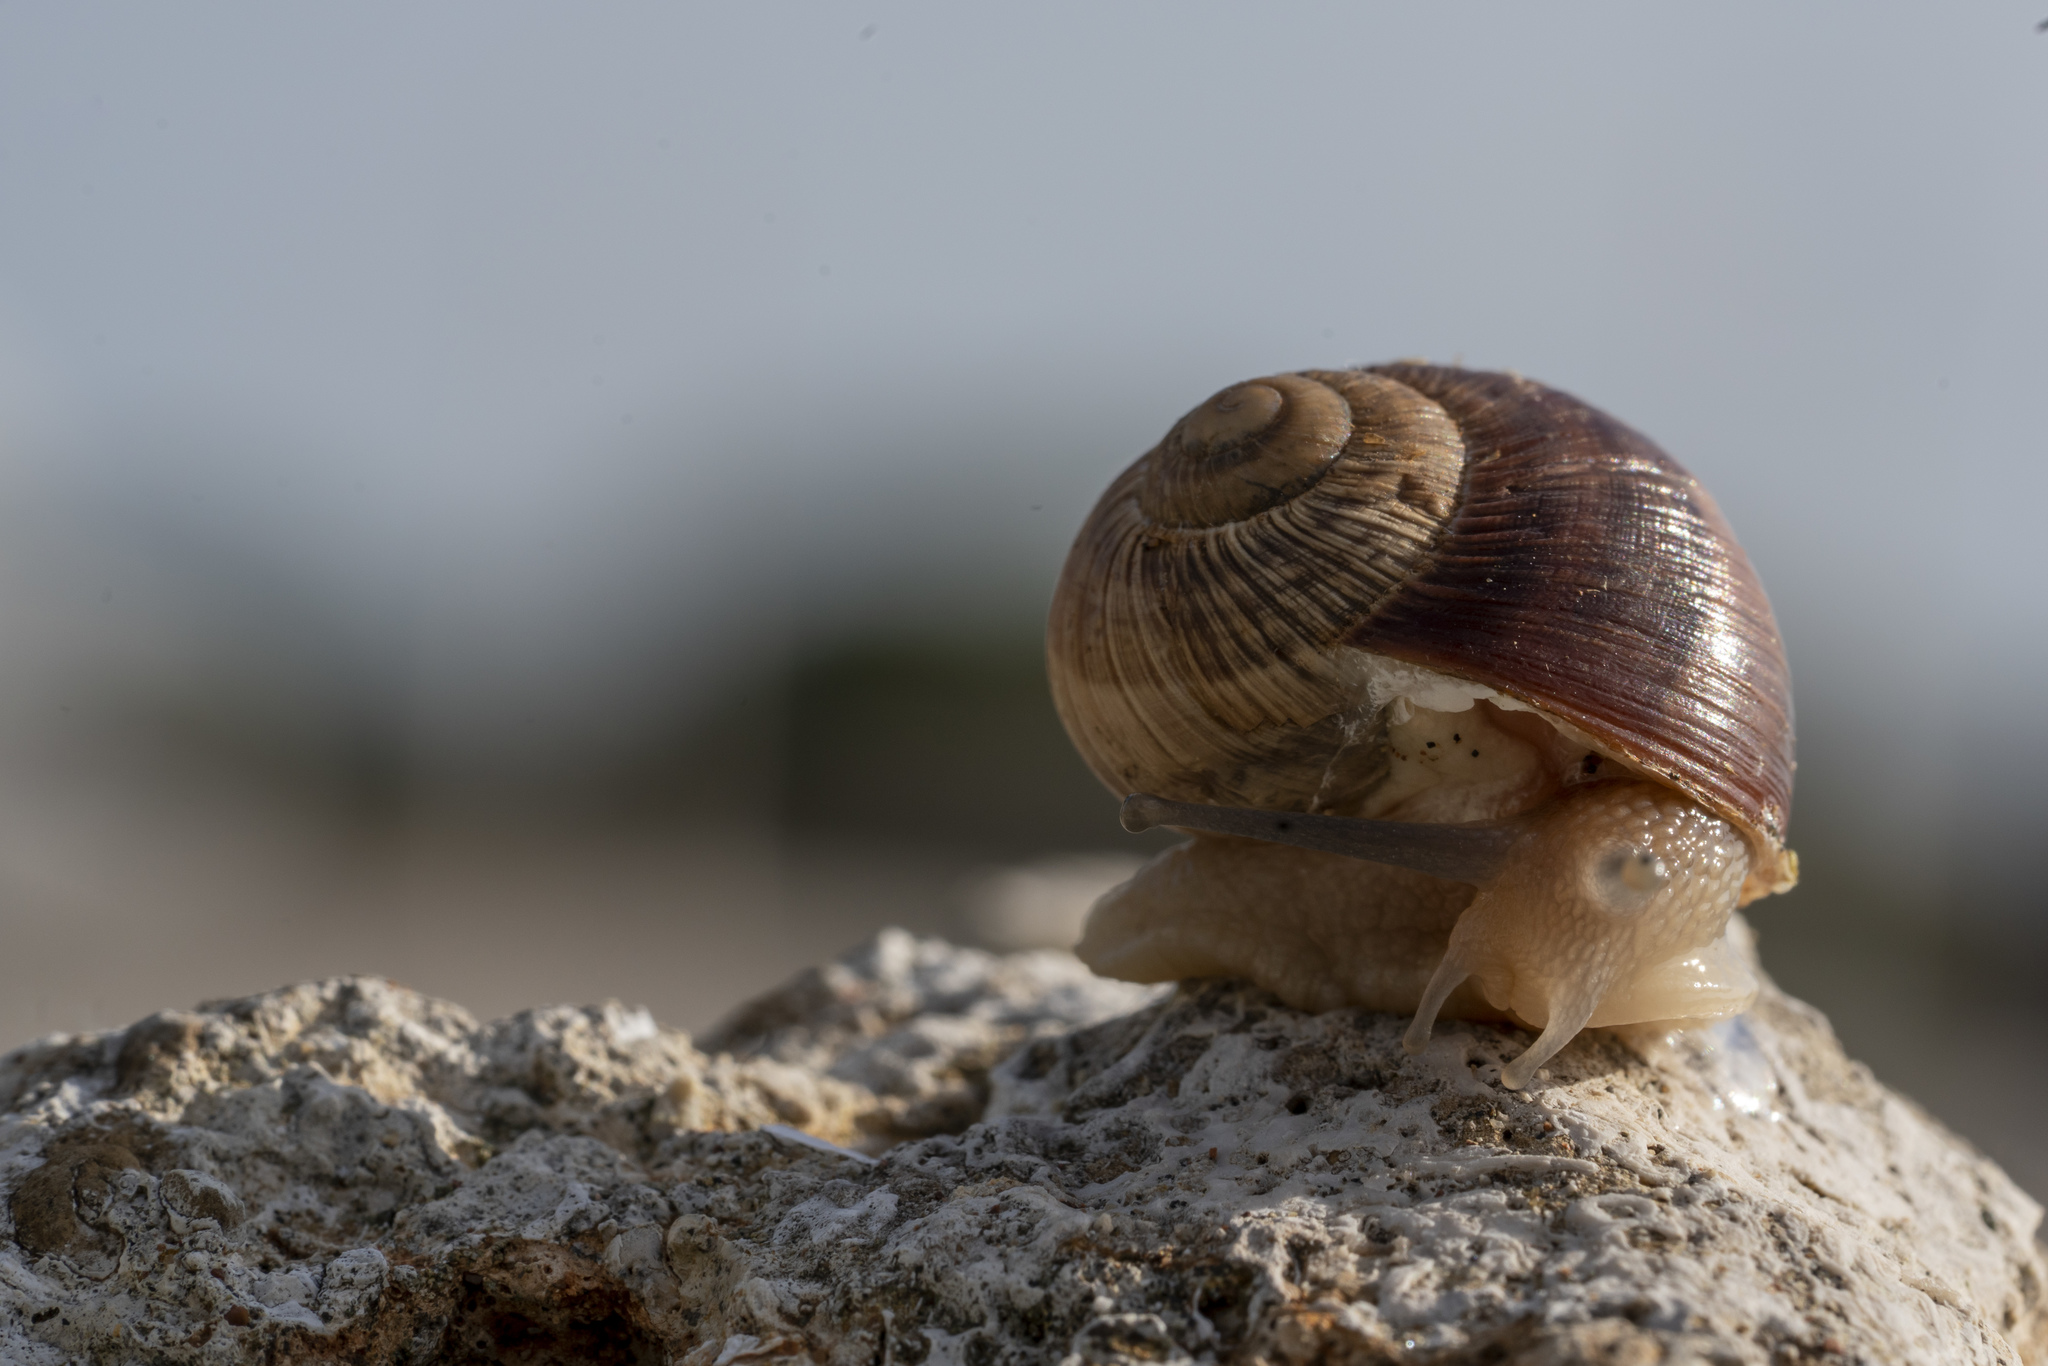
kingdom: Animalia
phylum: Mollusca
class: Gastropoda
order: Stylommatophora
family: Helicidae
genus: Helix
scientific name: Helix nucula
